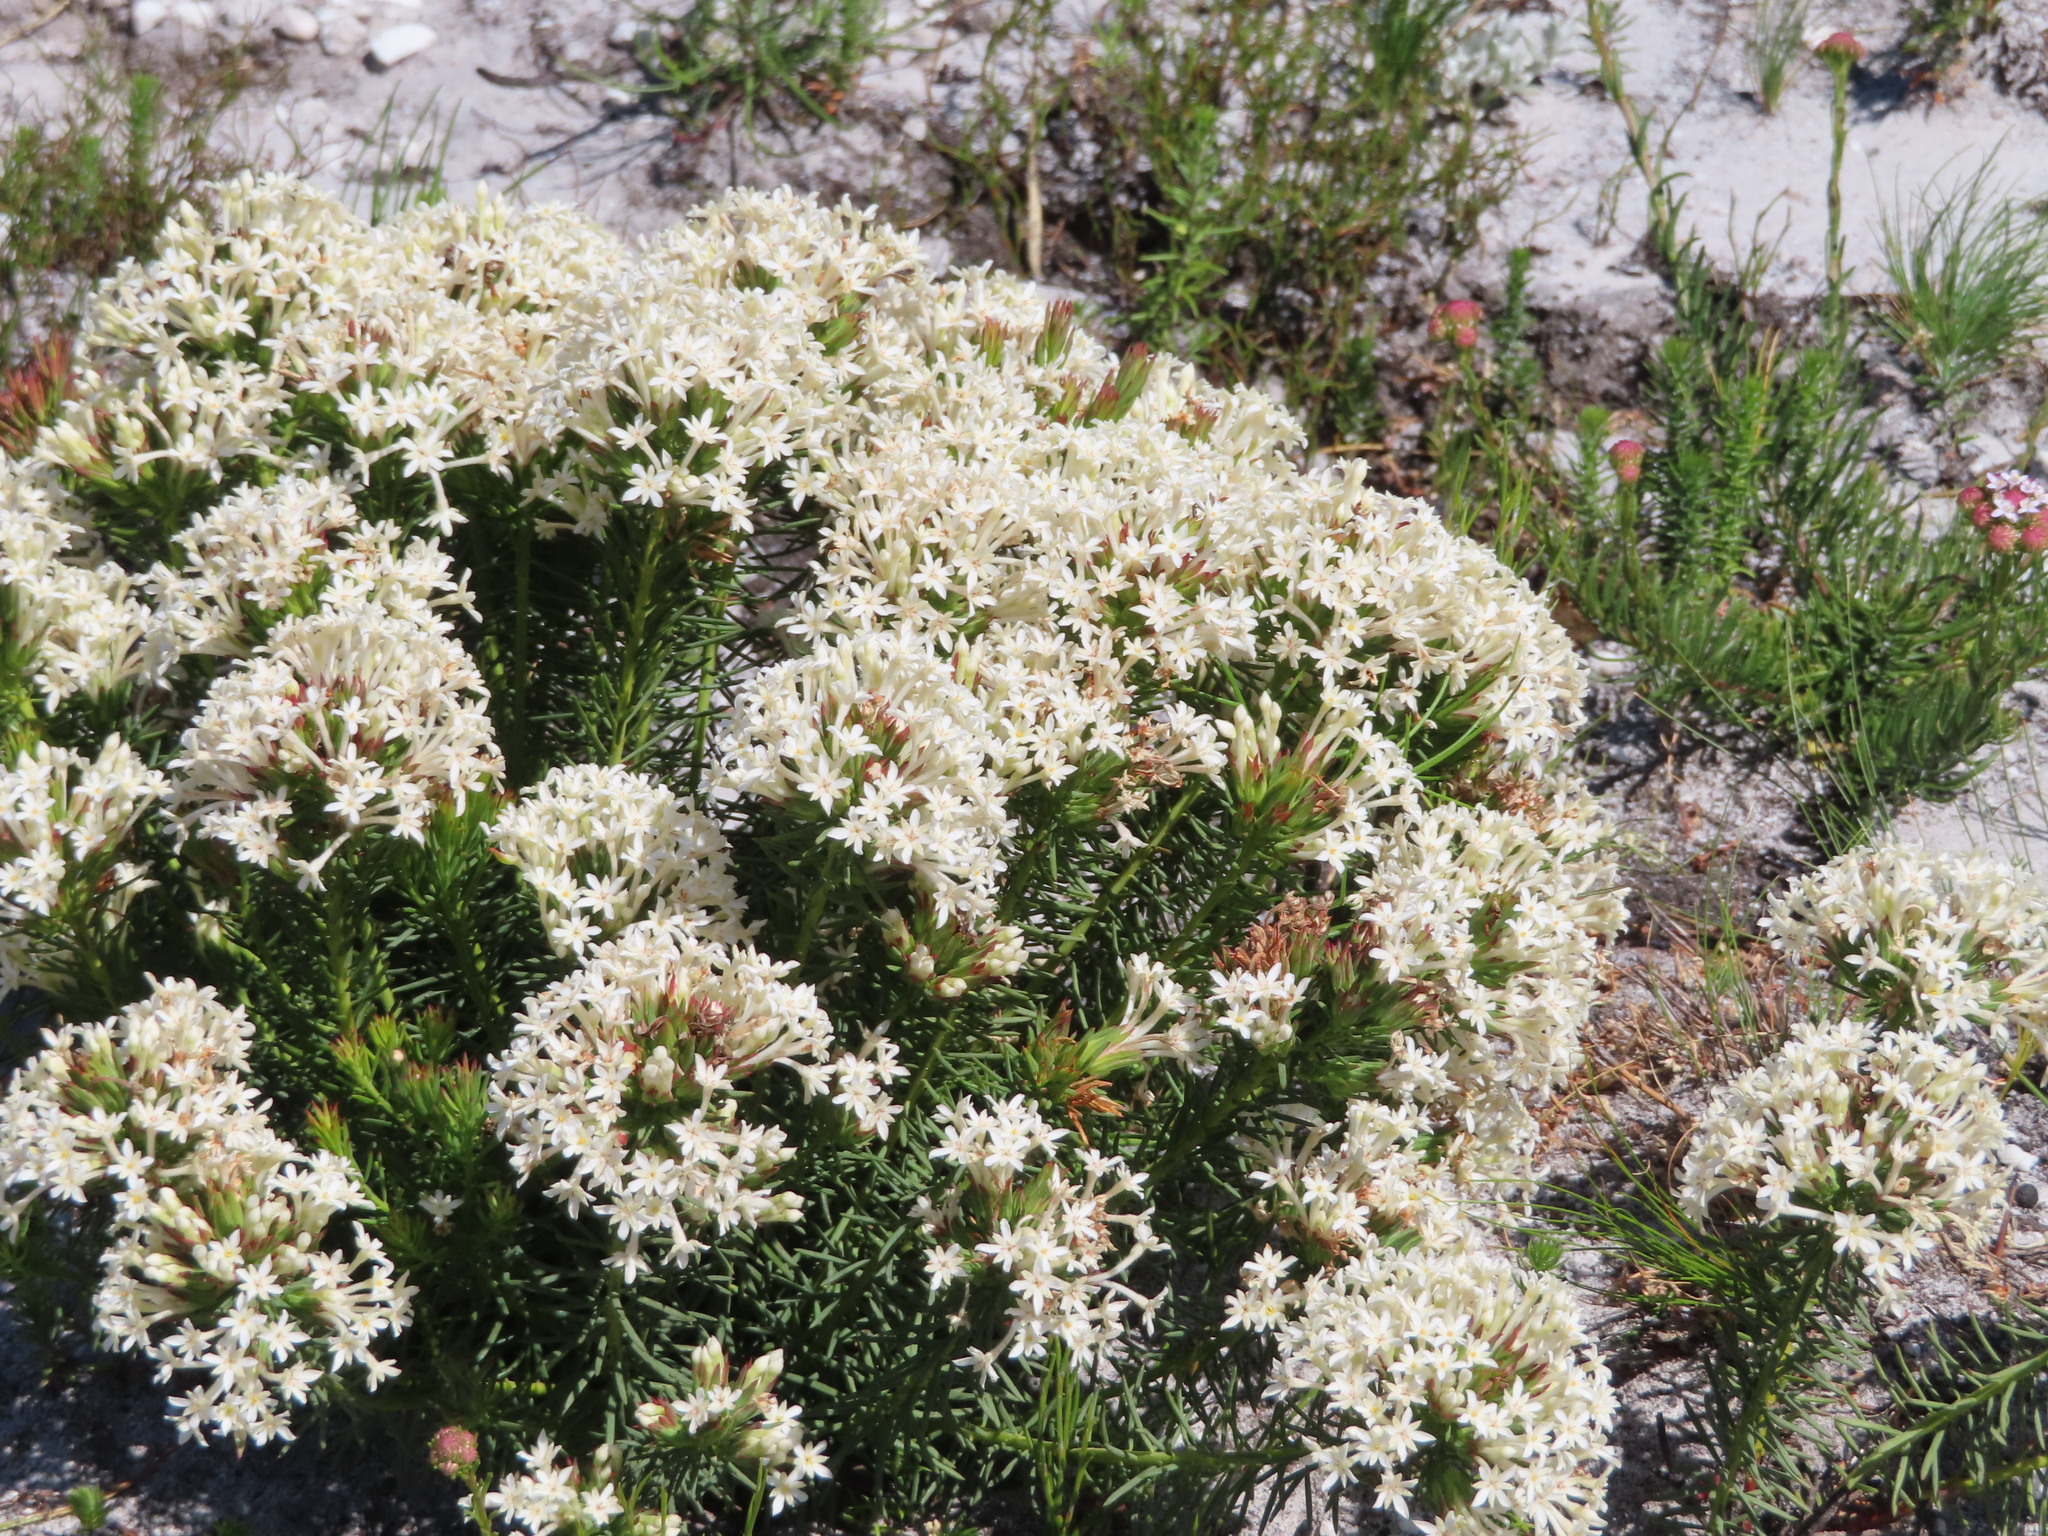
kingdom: Plantae
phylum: Tracheophyta
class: Magnoliopsida
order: Malvales
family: Thymelaeaceae
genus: Gnidia
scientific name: Gnidia pinifolia
